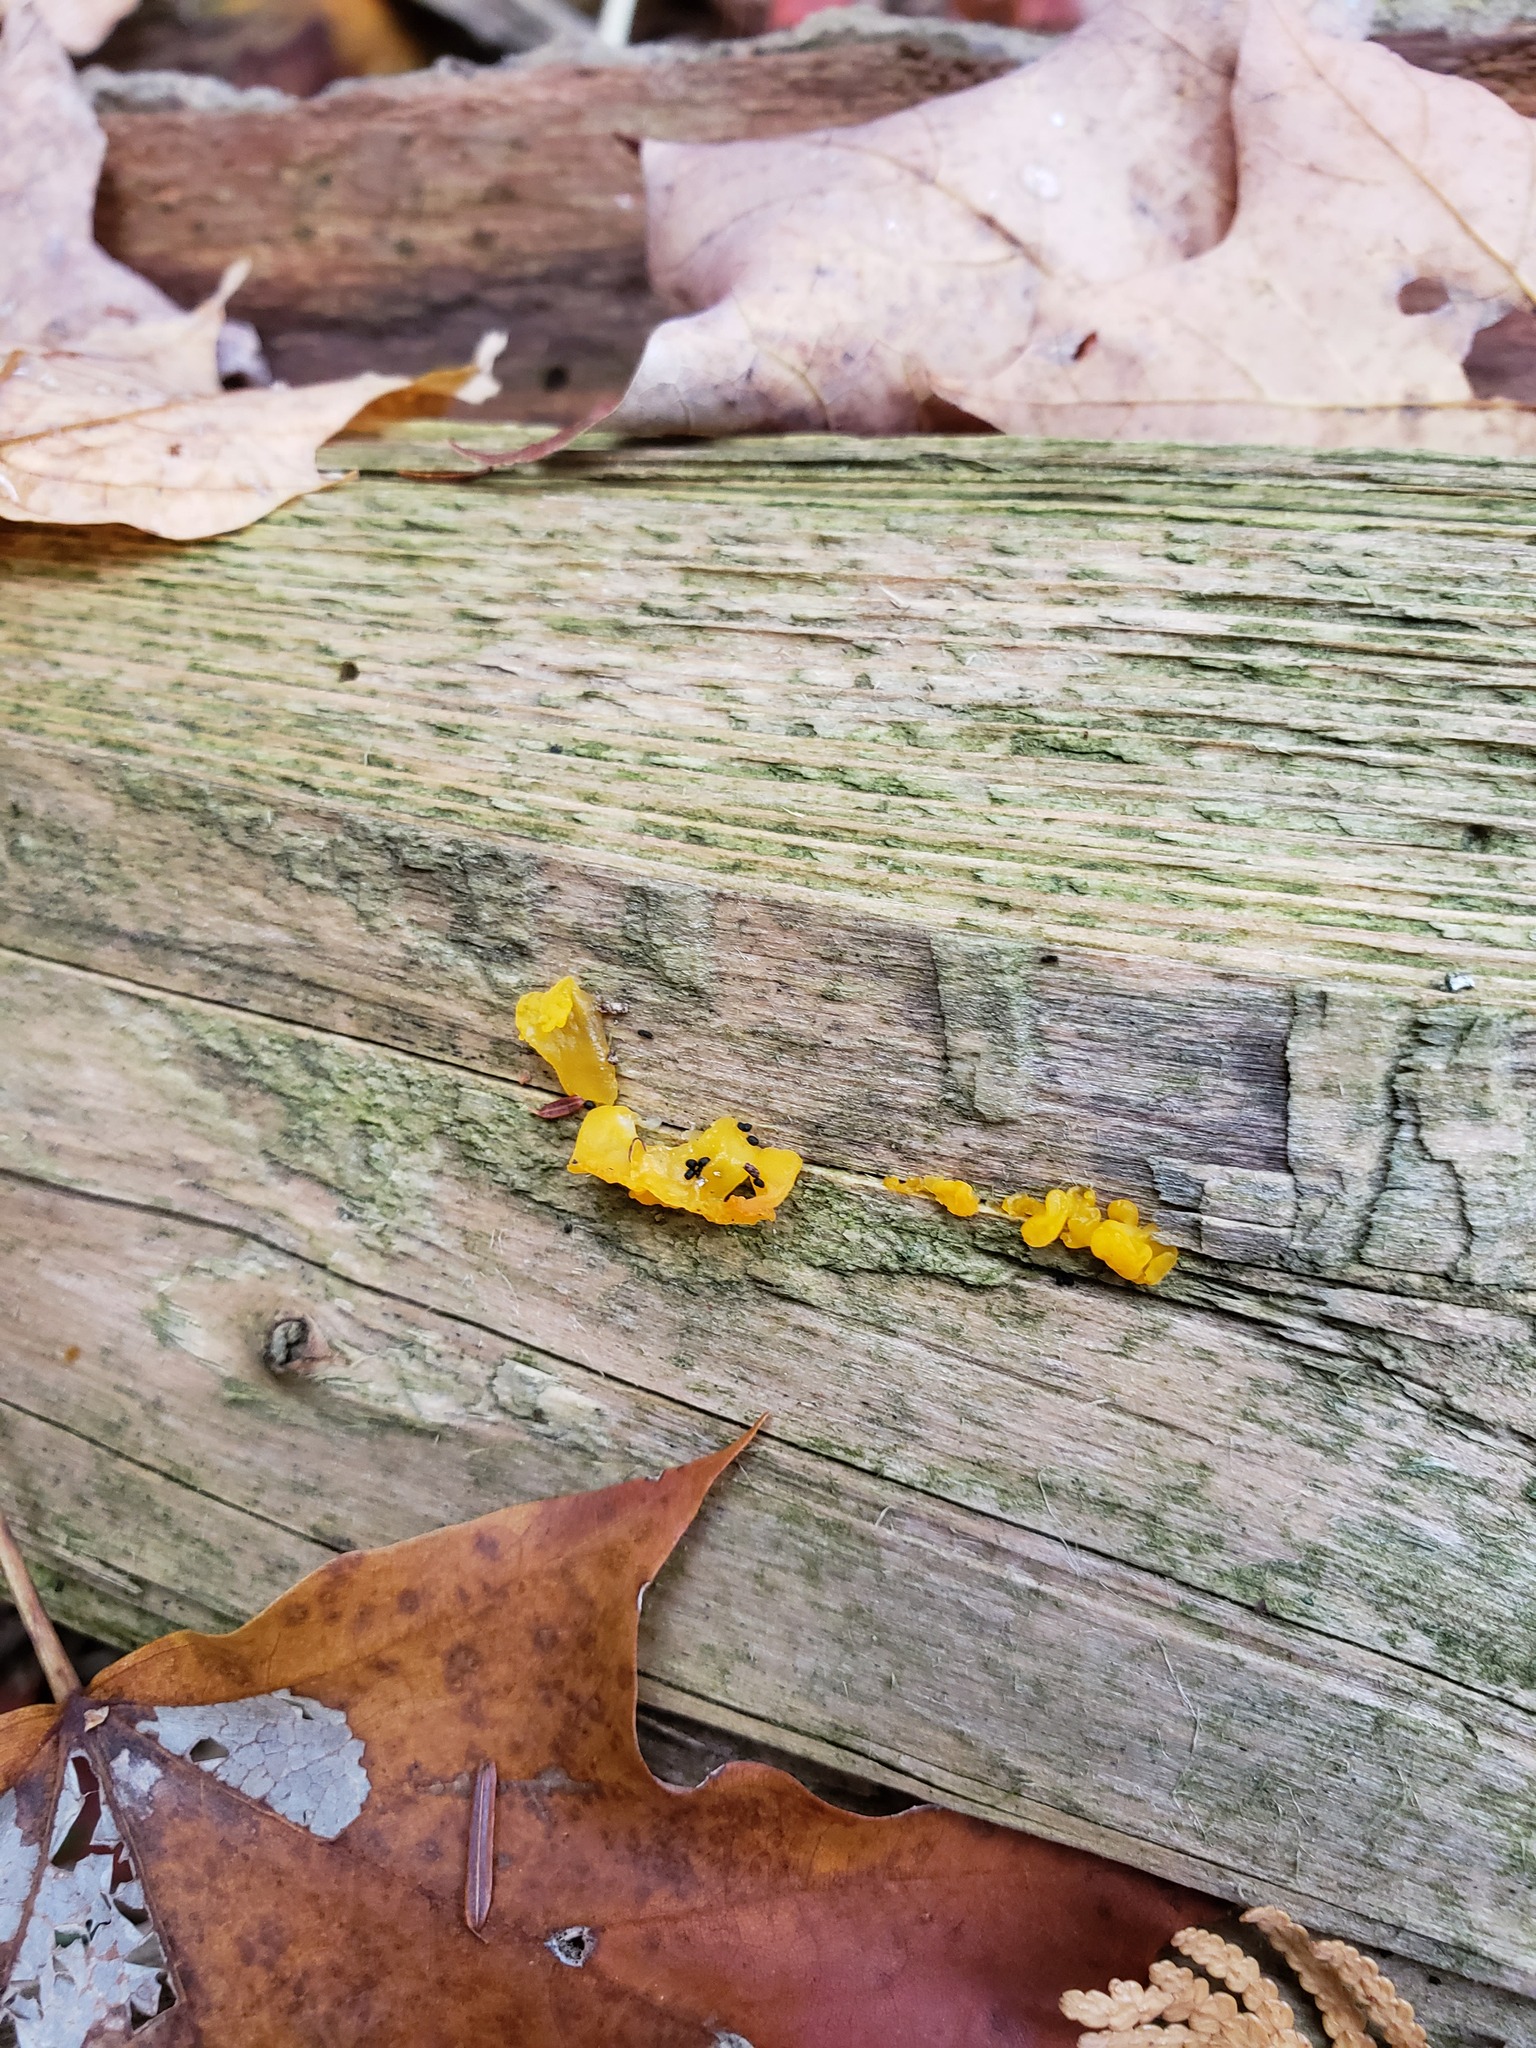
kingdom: Fungi
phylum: Basidiomycota
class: Dacrymycetes
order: Dacrymycetales
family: Dacrymycetaceae
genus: Dacrymyces
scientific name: Dacrymyces chrysospermus
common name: Orange jelly spot
